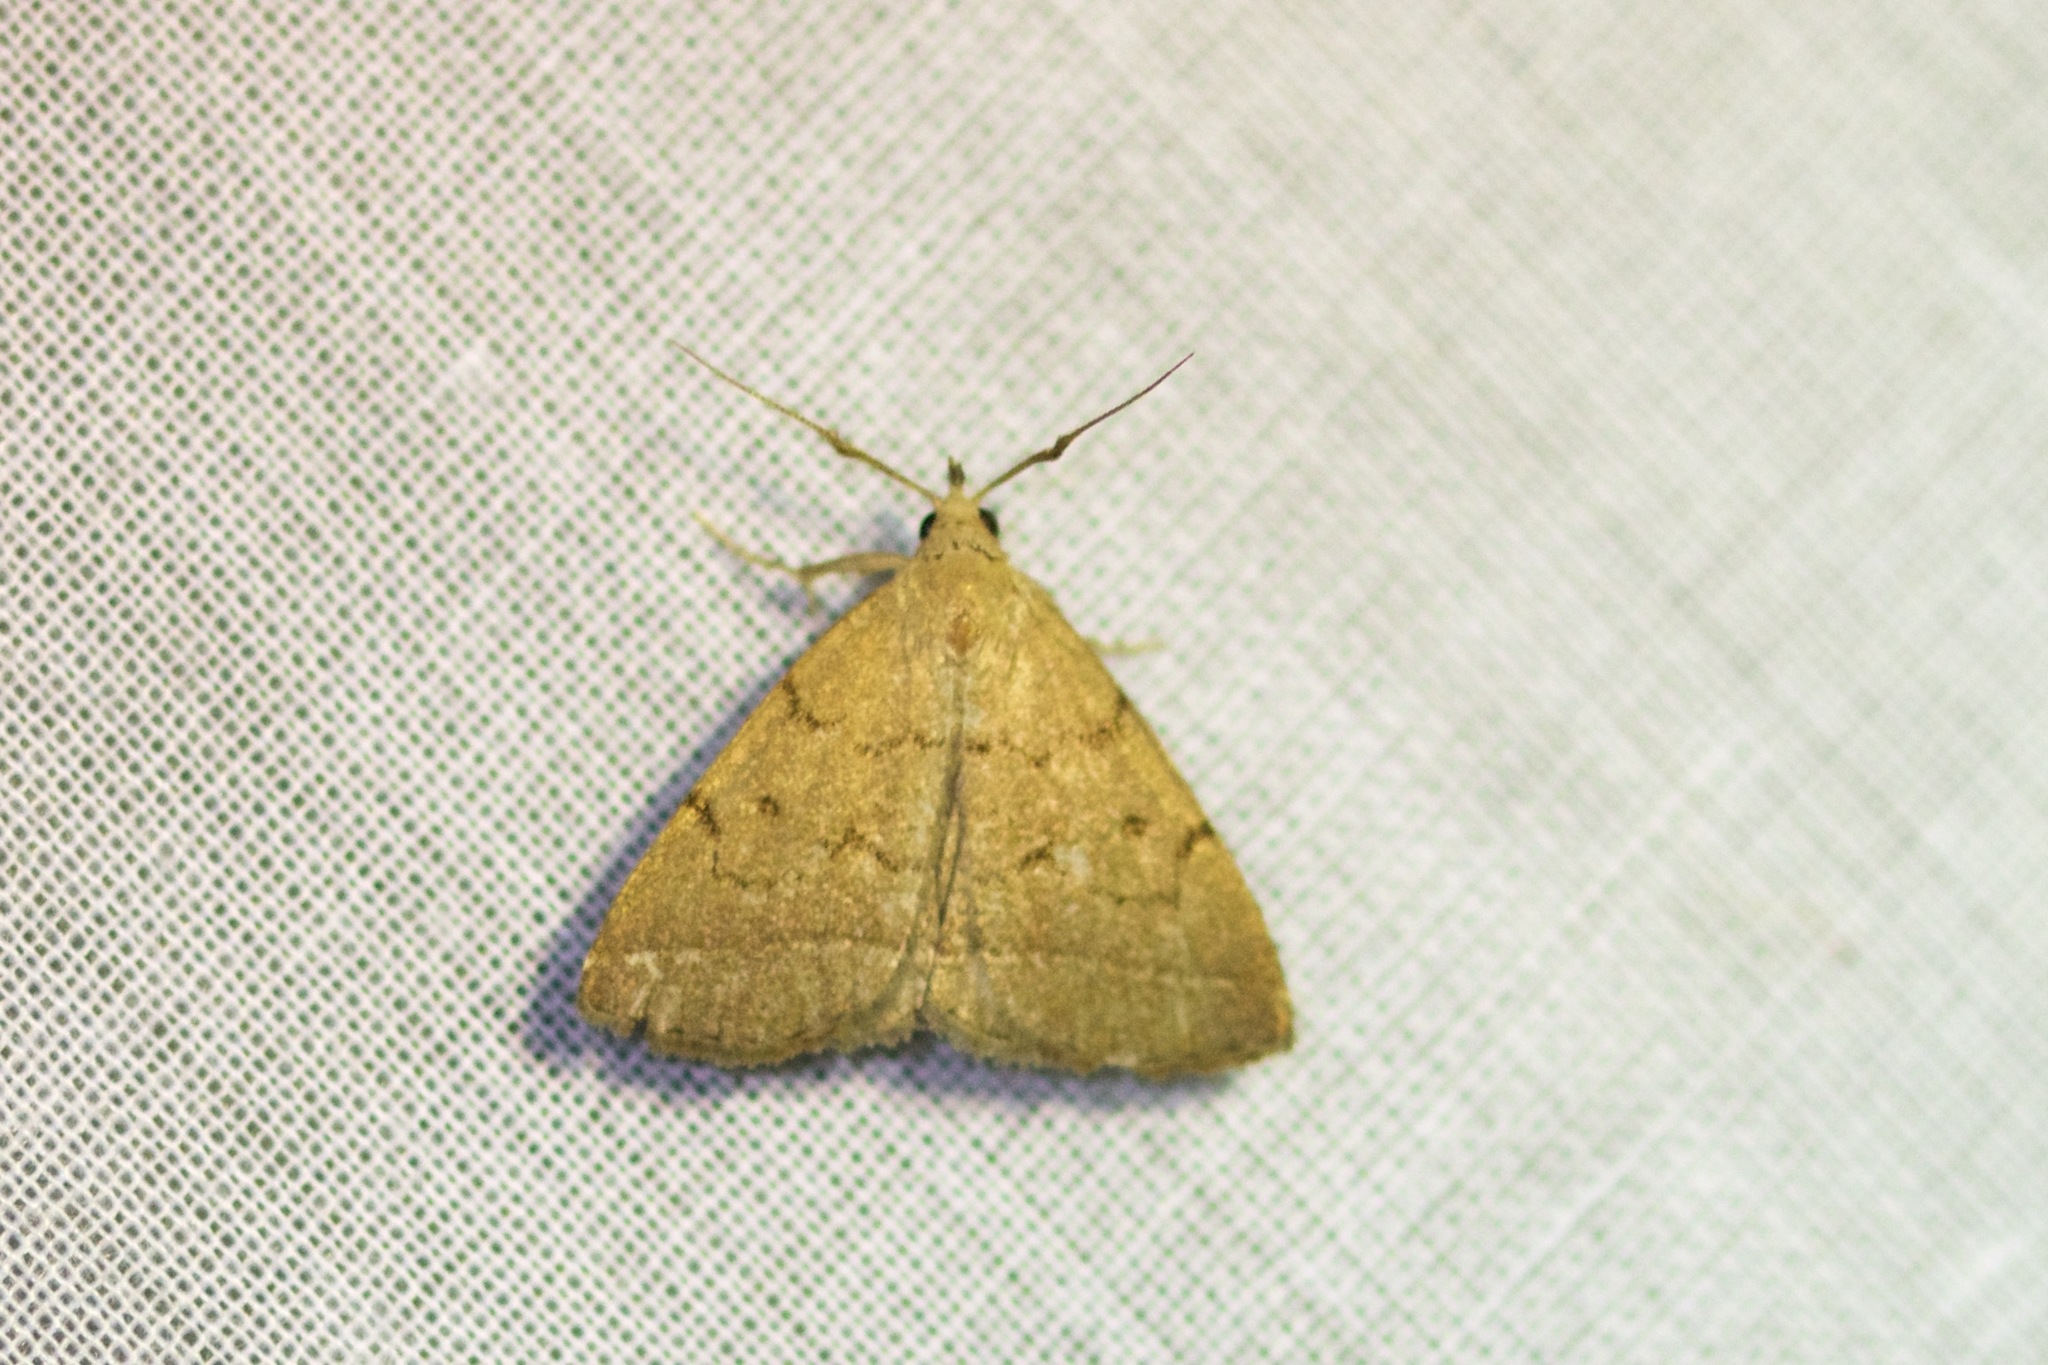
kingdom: Animalia
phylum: Arthropoda
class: Insecta
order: Lepidoptera
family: Erebidae
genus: Zanclognatha
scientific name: Zanclognatha jacchusalis
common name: Yellowish zanclognatha
